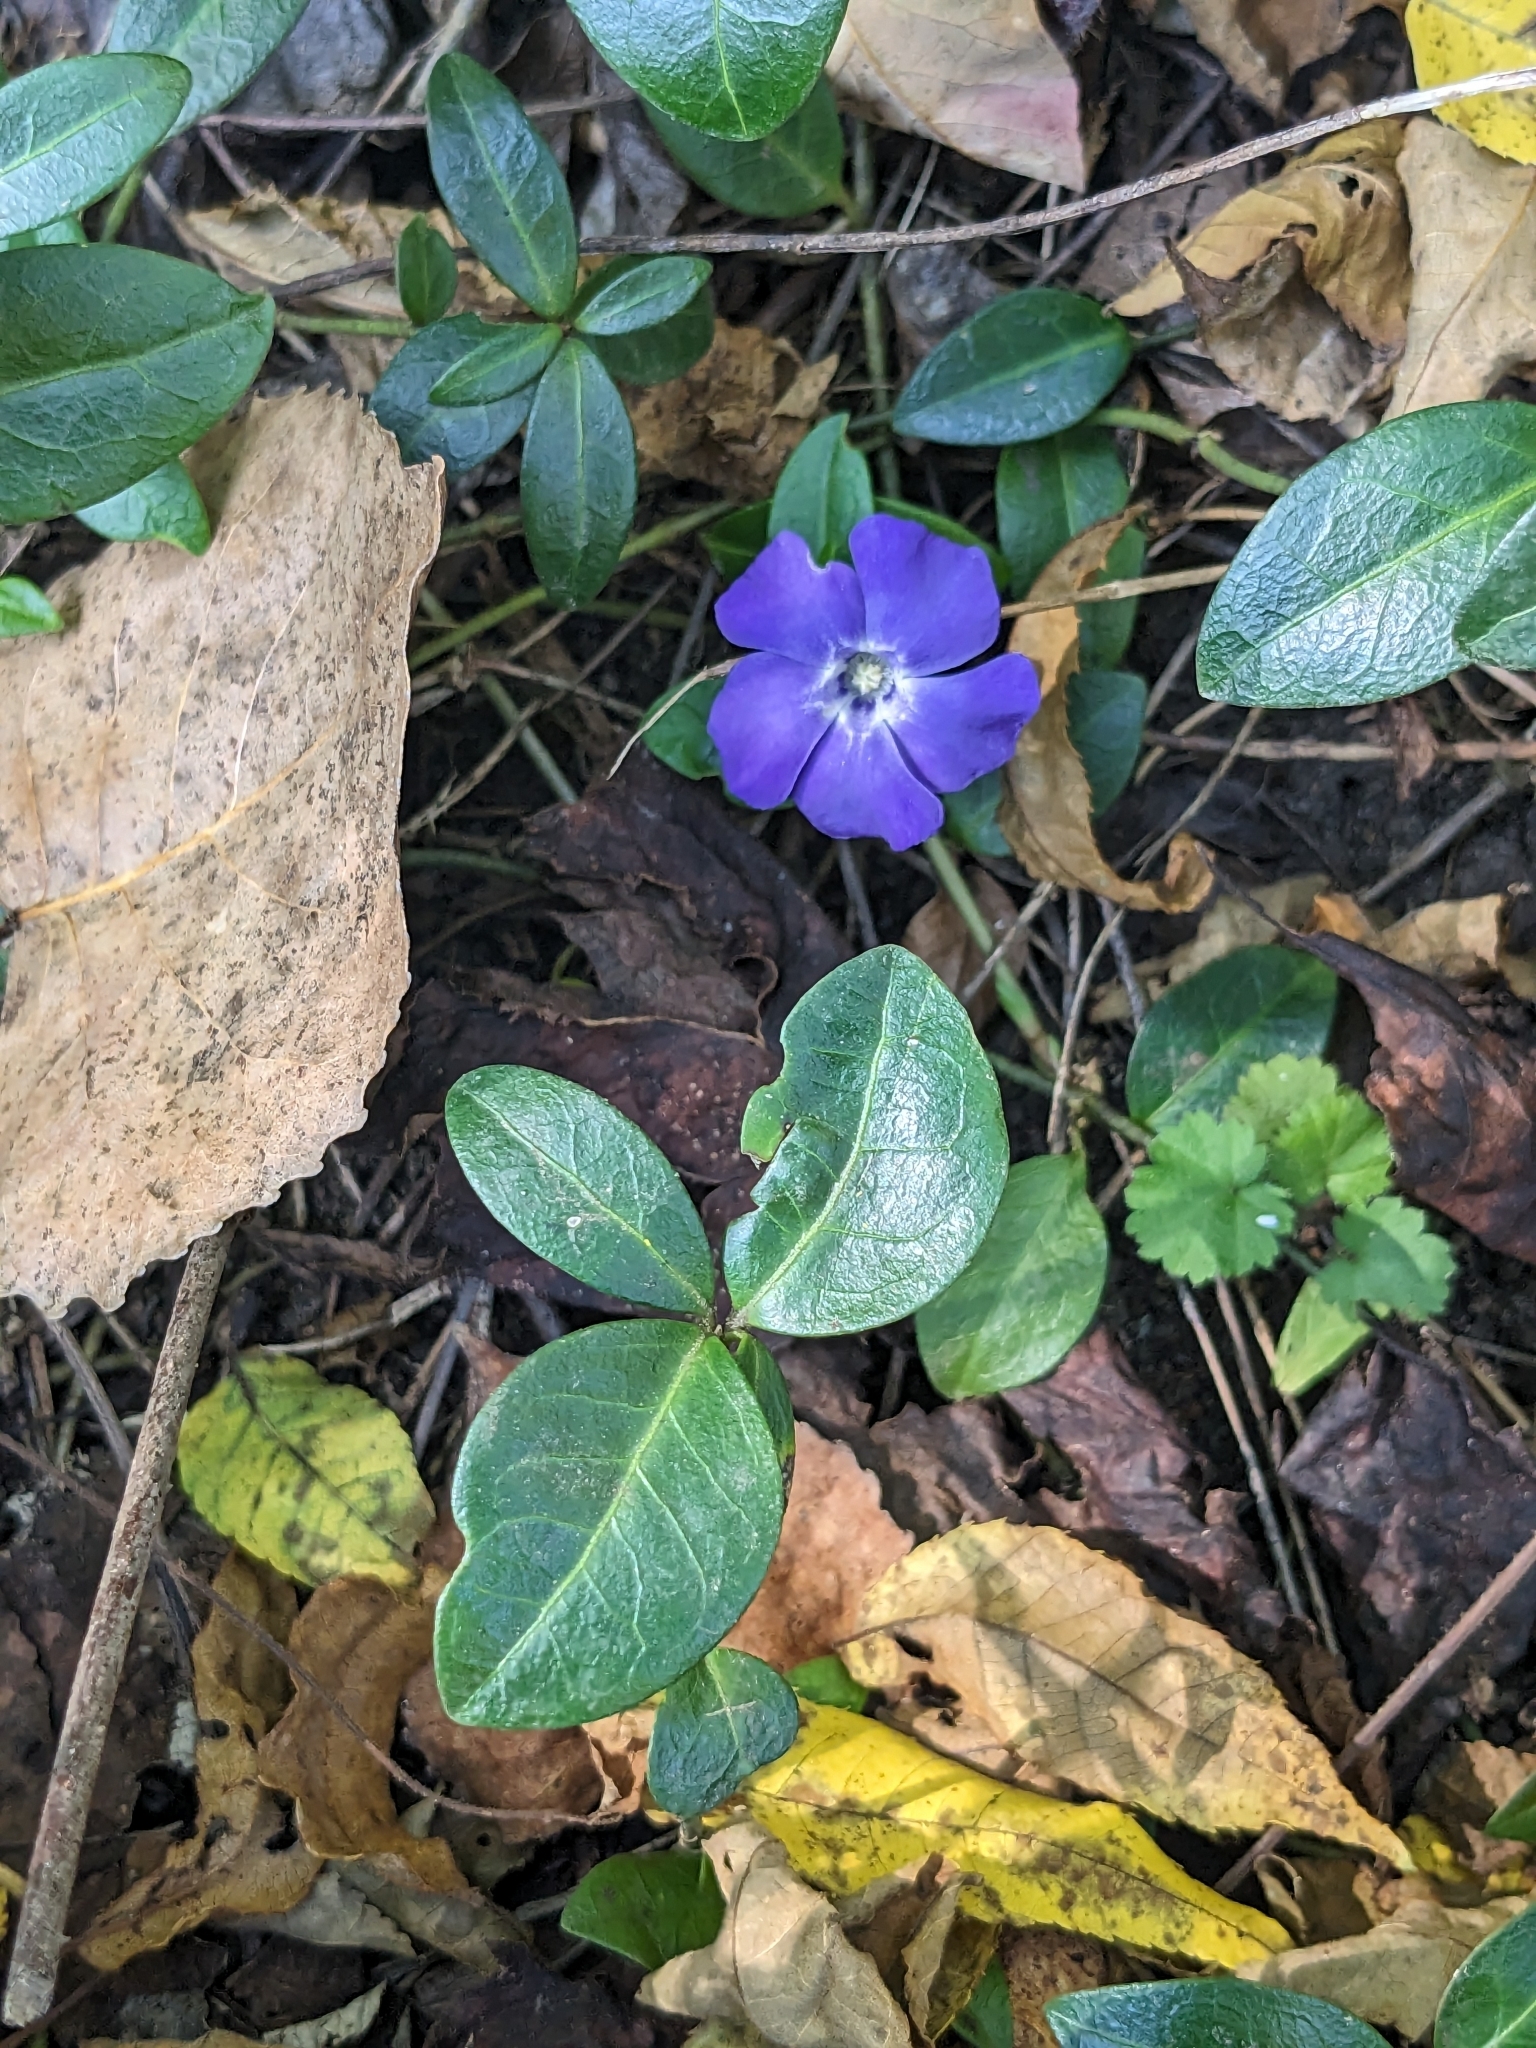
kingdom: Plantae
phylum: Tracheophyta
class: Magnoliopsida
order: Gentianales
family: Apocynaceae
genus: Vinca
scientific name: Vinca minor
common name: Lesser periwinkle
